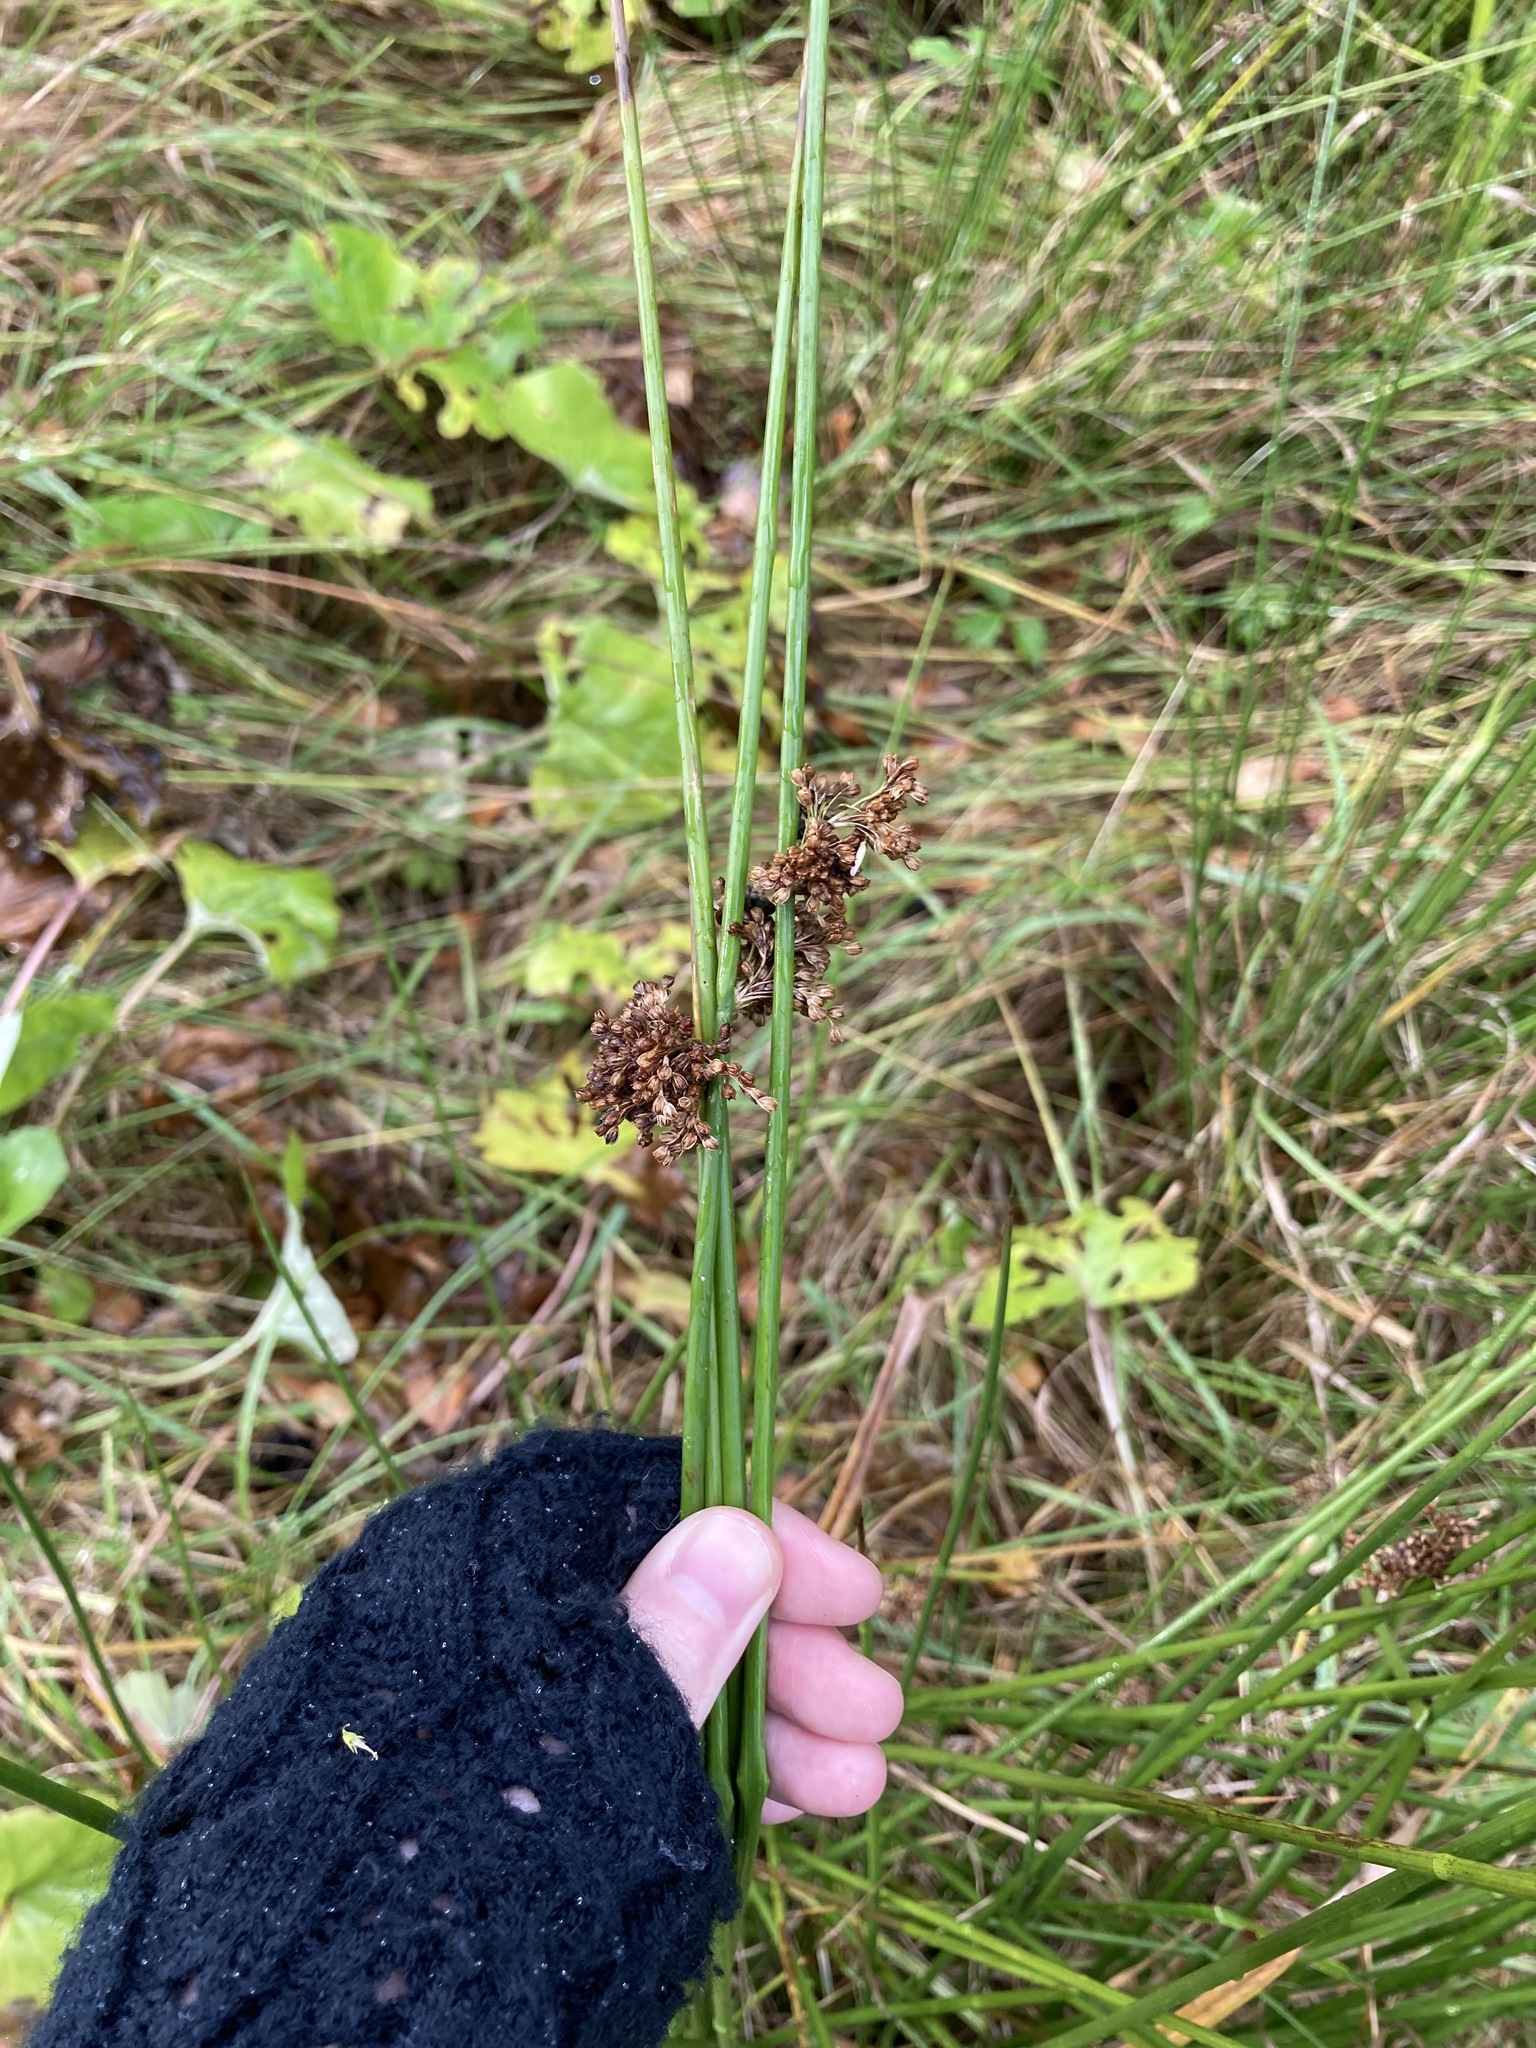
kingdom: Plantae
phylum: Tracheophyta
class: Liliopsida
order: Poales
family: Juncaceae
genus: Juncus
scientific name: Juncus effusus
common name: Soft rush
